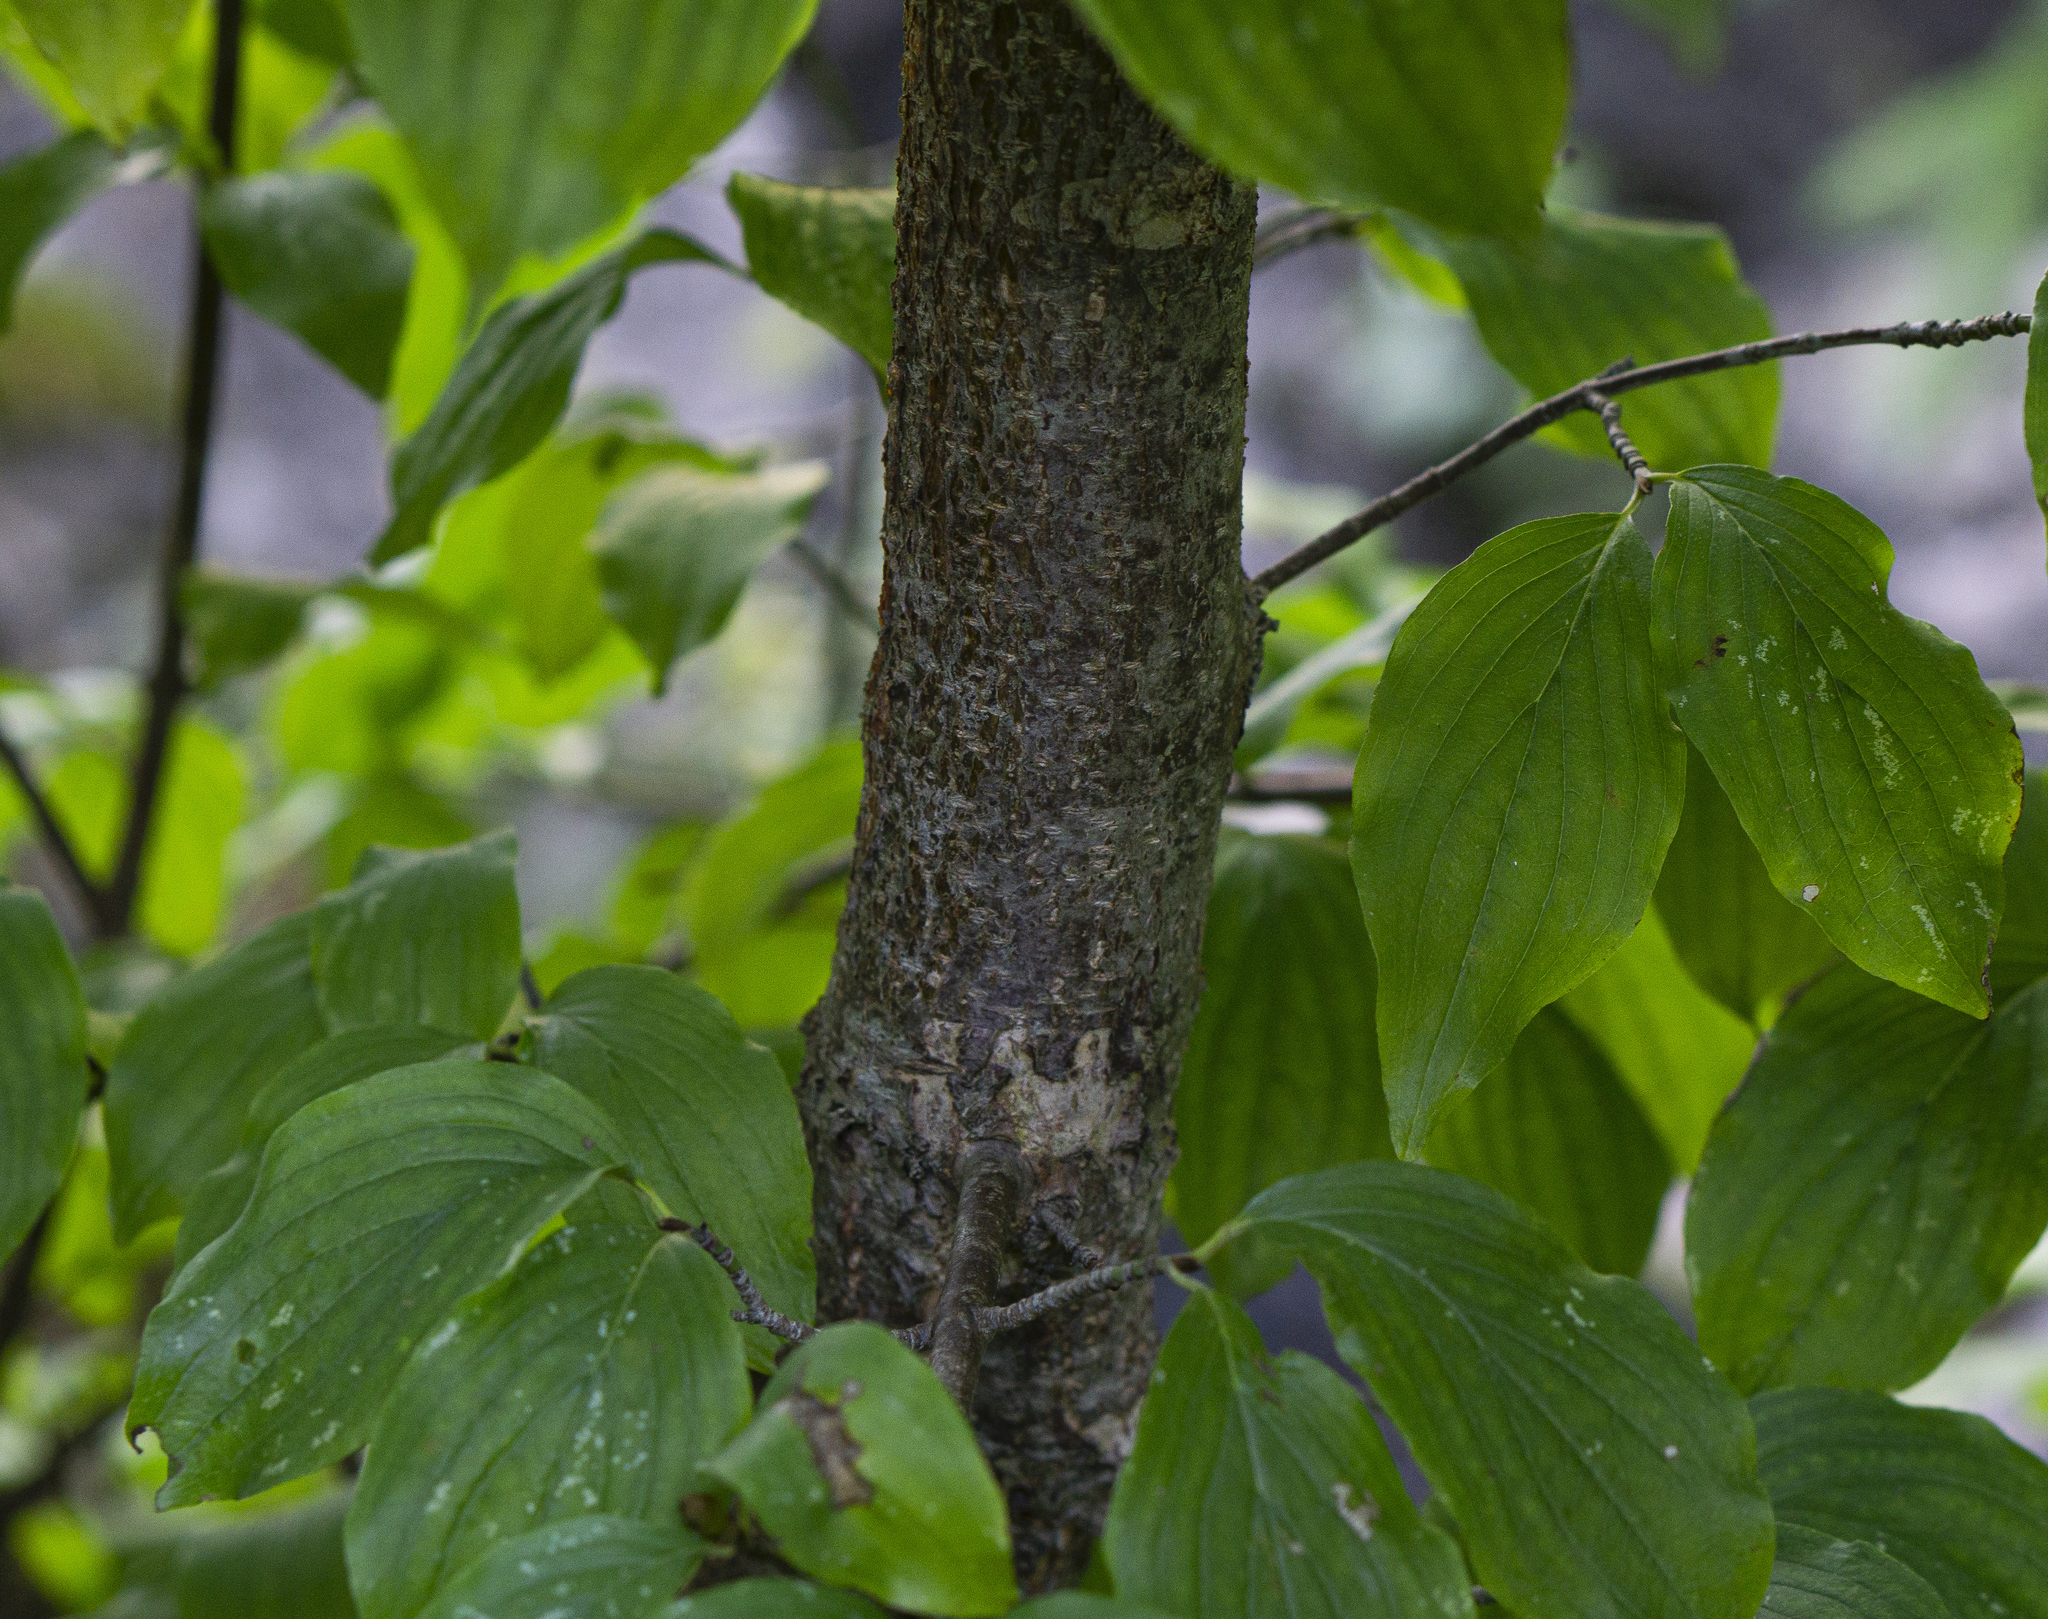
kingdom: Plantae
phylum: Tracheophyta
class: Magnoliopsida
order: Cornales
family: Cornaceae
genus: Cornus
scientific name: Cornus mas
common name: Cornelian-cherry
